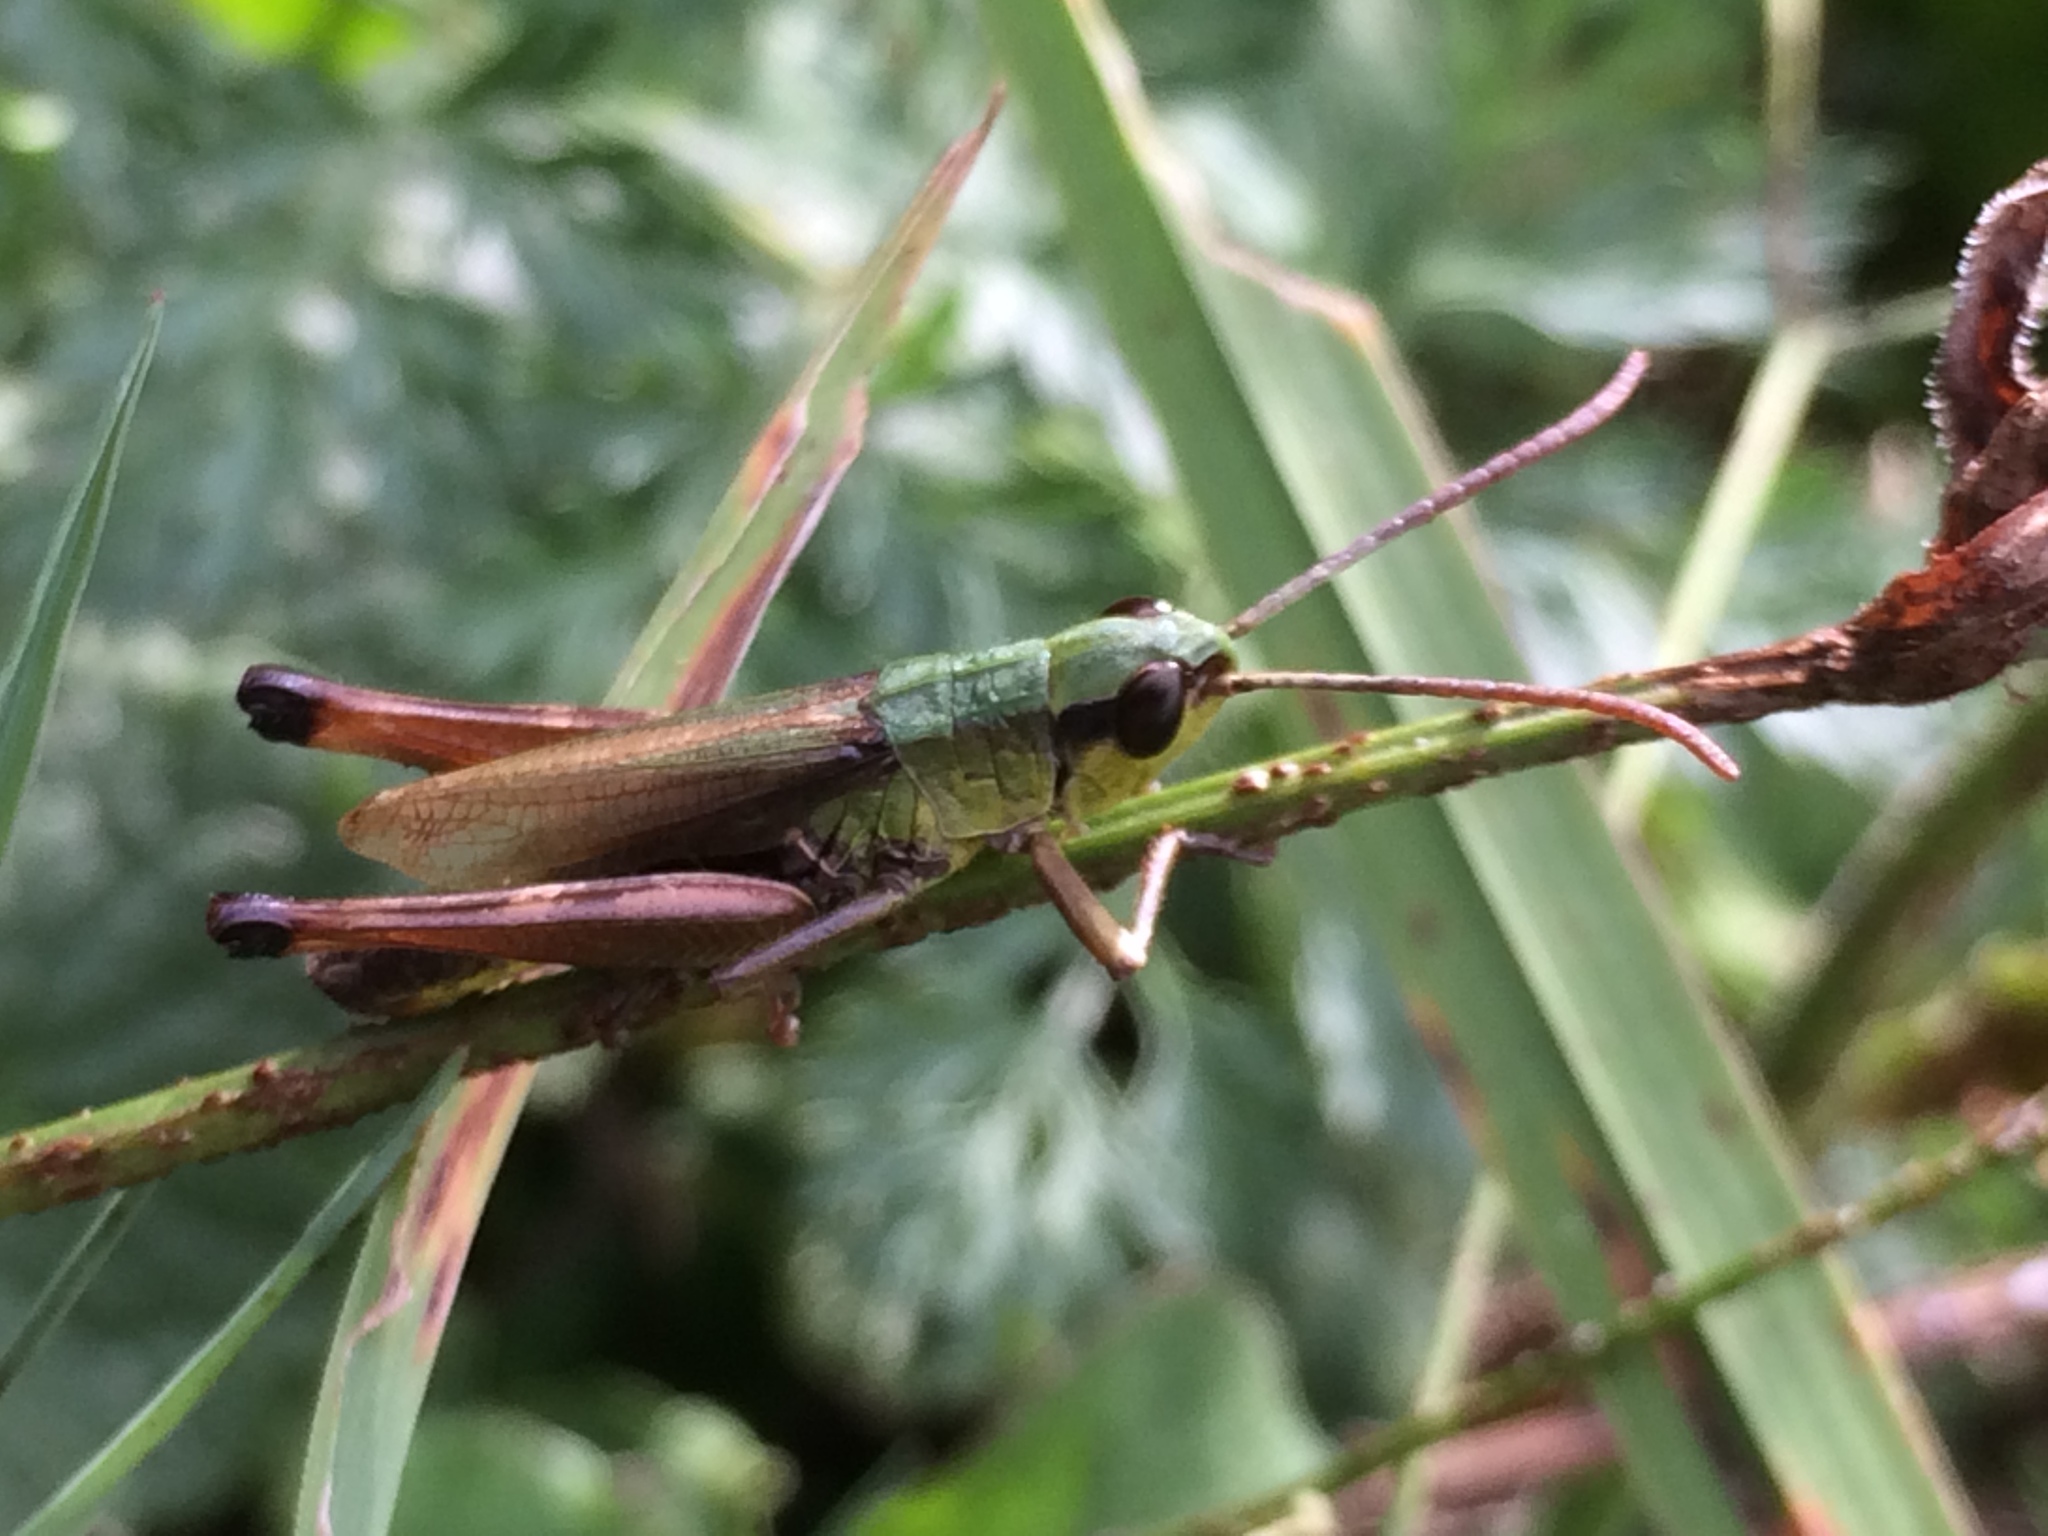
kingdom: Animalia
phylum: Arthropoda
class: Insecta
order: Orthoptera
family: Acrididae
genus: Pseudochorthippus
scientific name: Pseudochorthippus parallelus
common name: Meadow grasshopper
